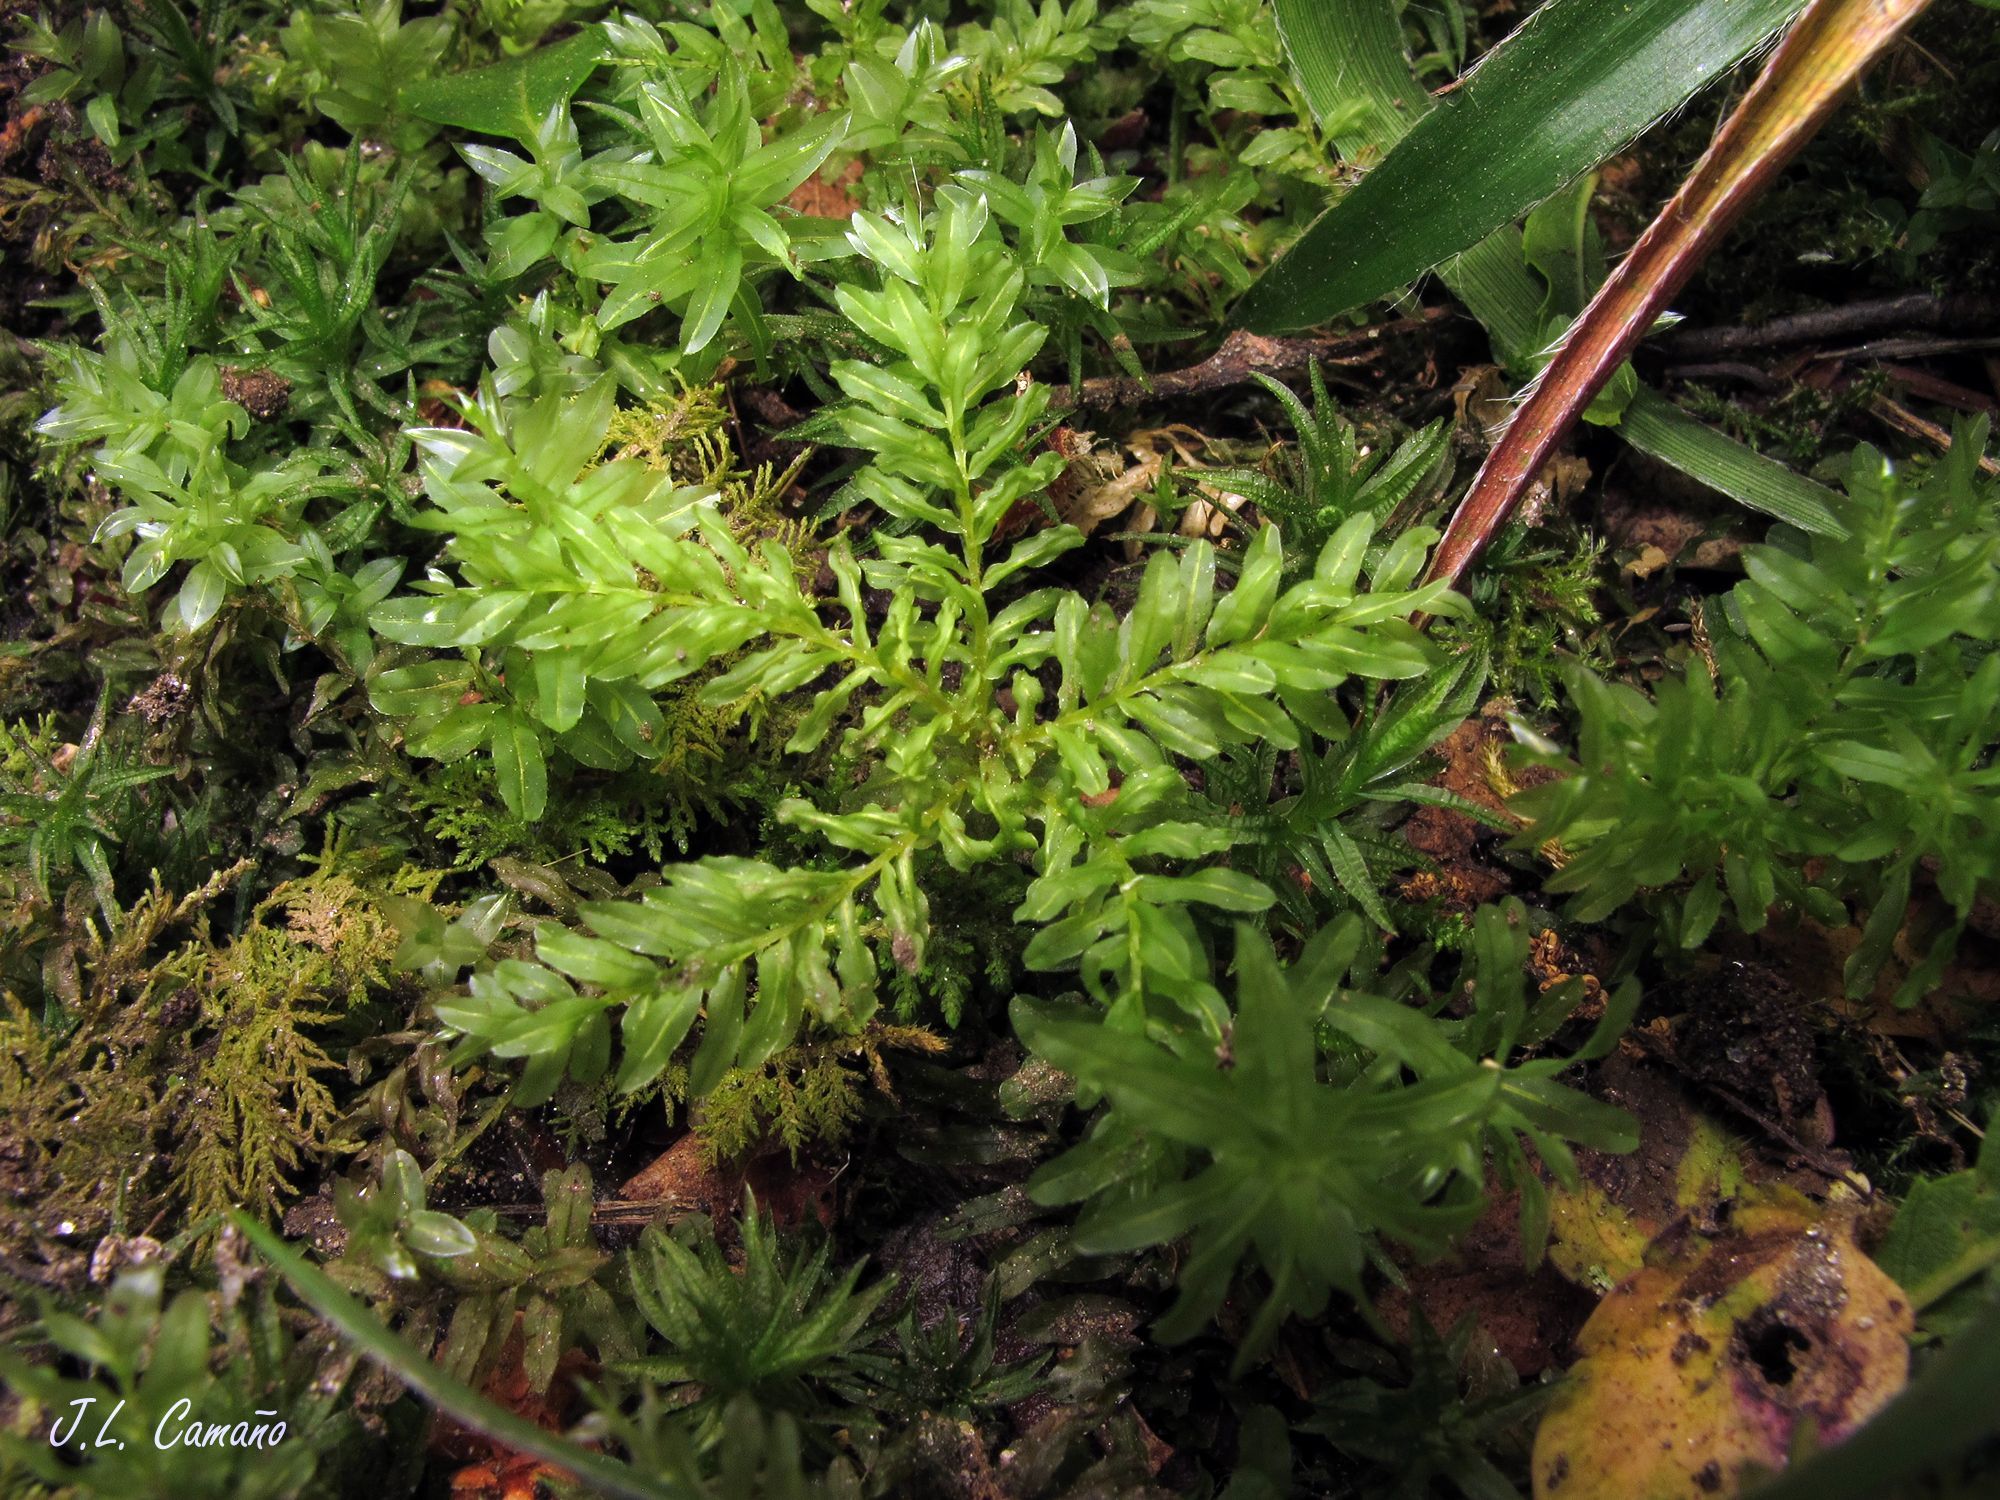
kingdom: Plantae
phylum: Bryophyta
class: Bryopsida
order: Bryales
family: Mniaceae
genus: Plagiomnium
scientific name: Plagiomnium undulatum
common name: Hart's-tongue thyme-moss
